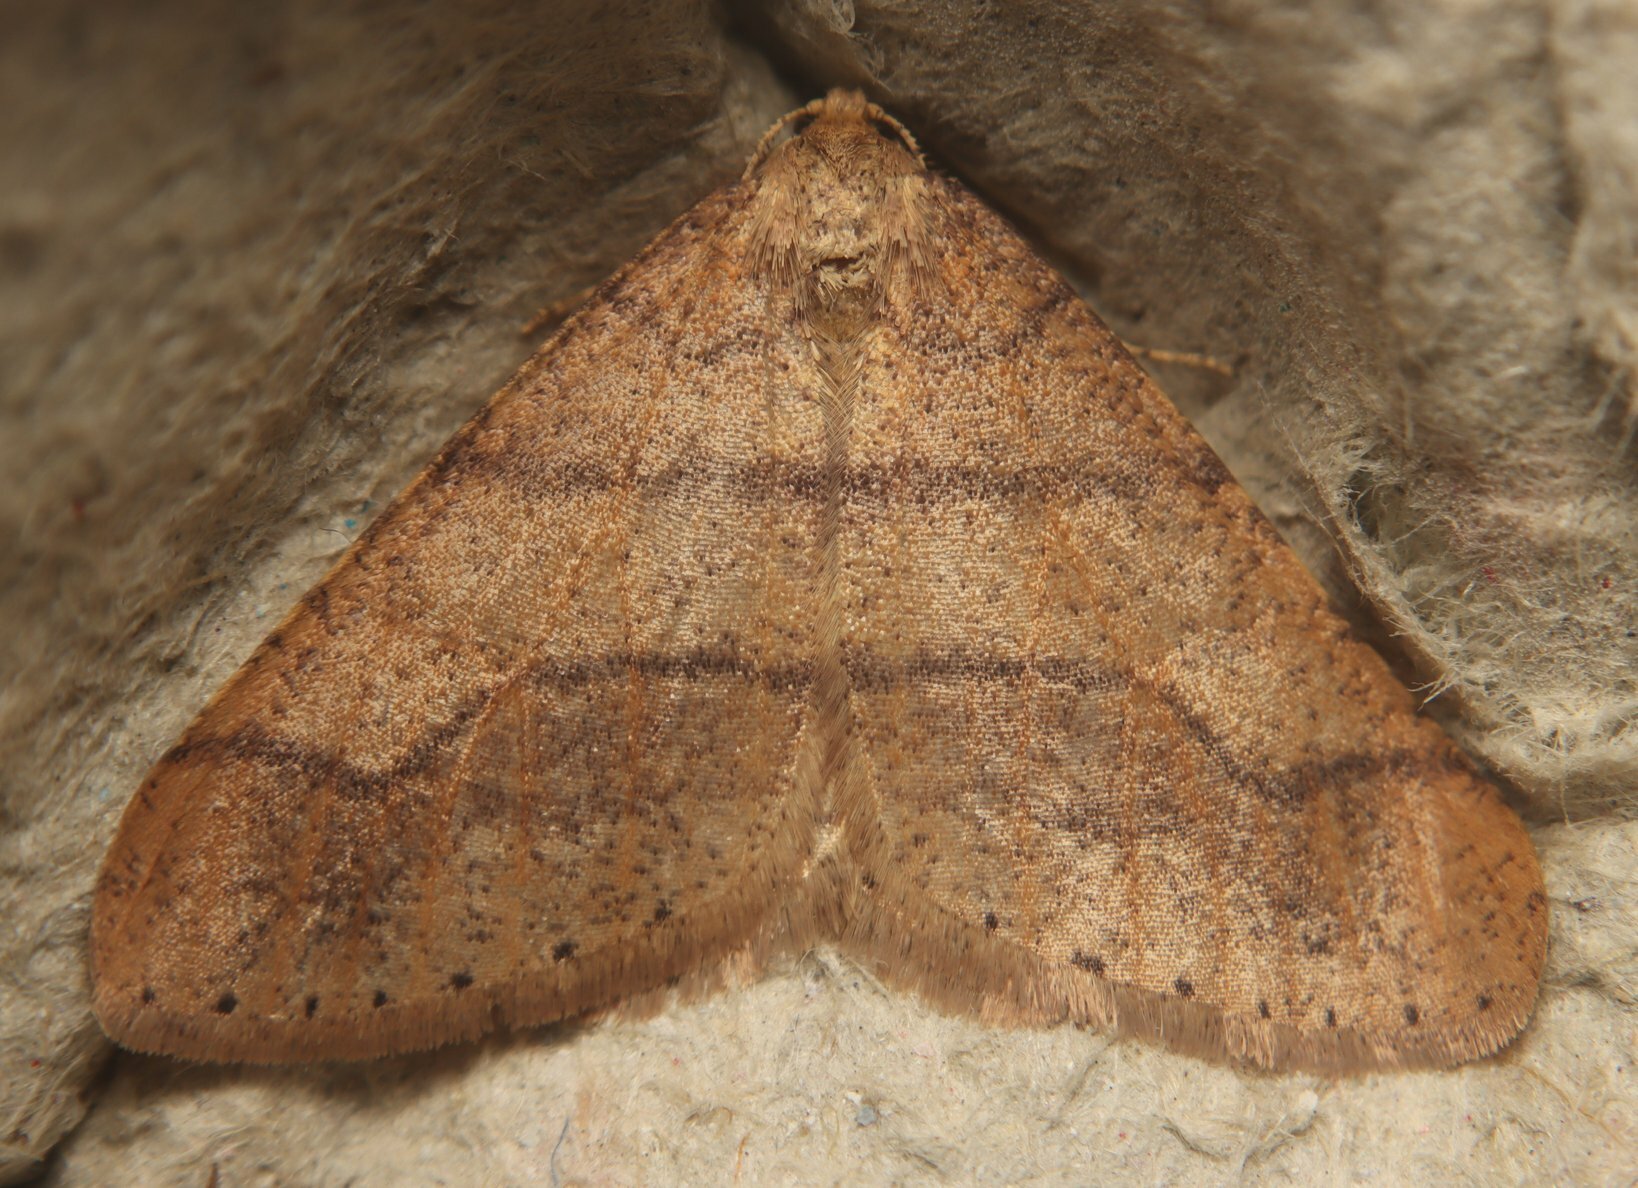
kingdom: Animalia
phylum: Arthropoda
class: Insecta
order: Lepidoptera
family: Geometridae
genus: Agriopis
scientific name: Agriopis marginaria
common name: Dotted border
